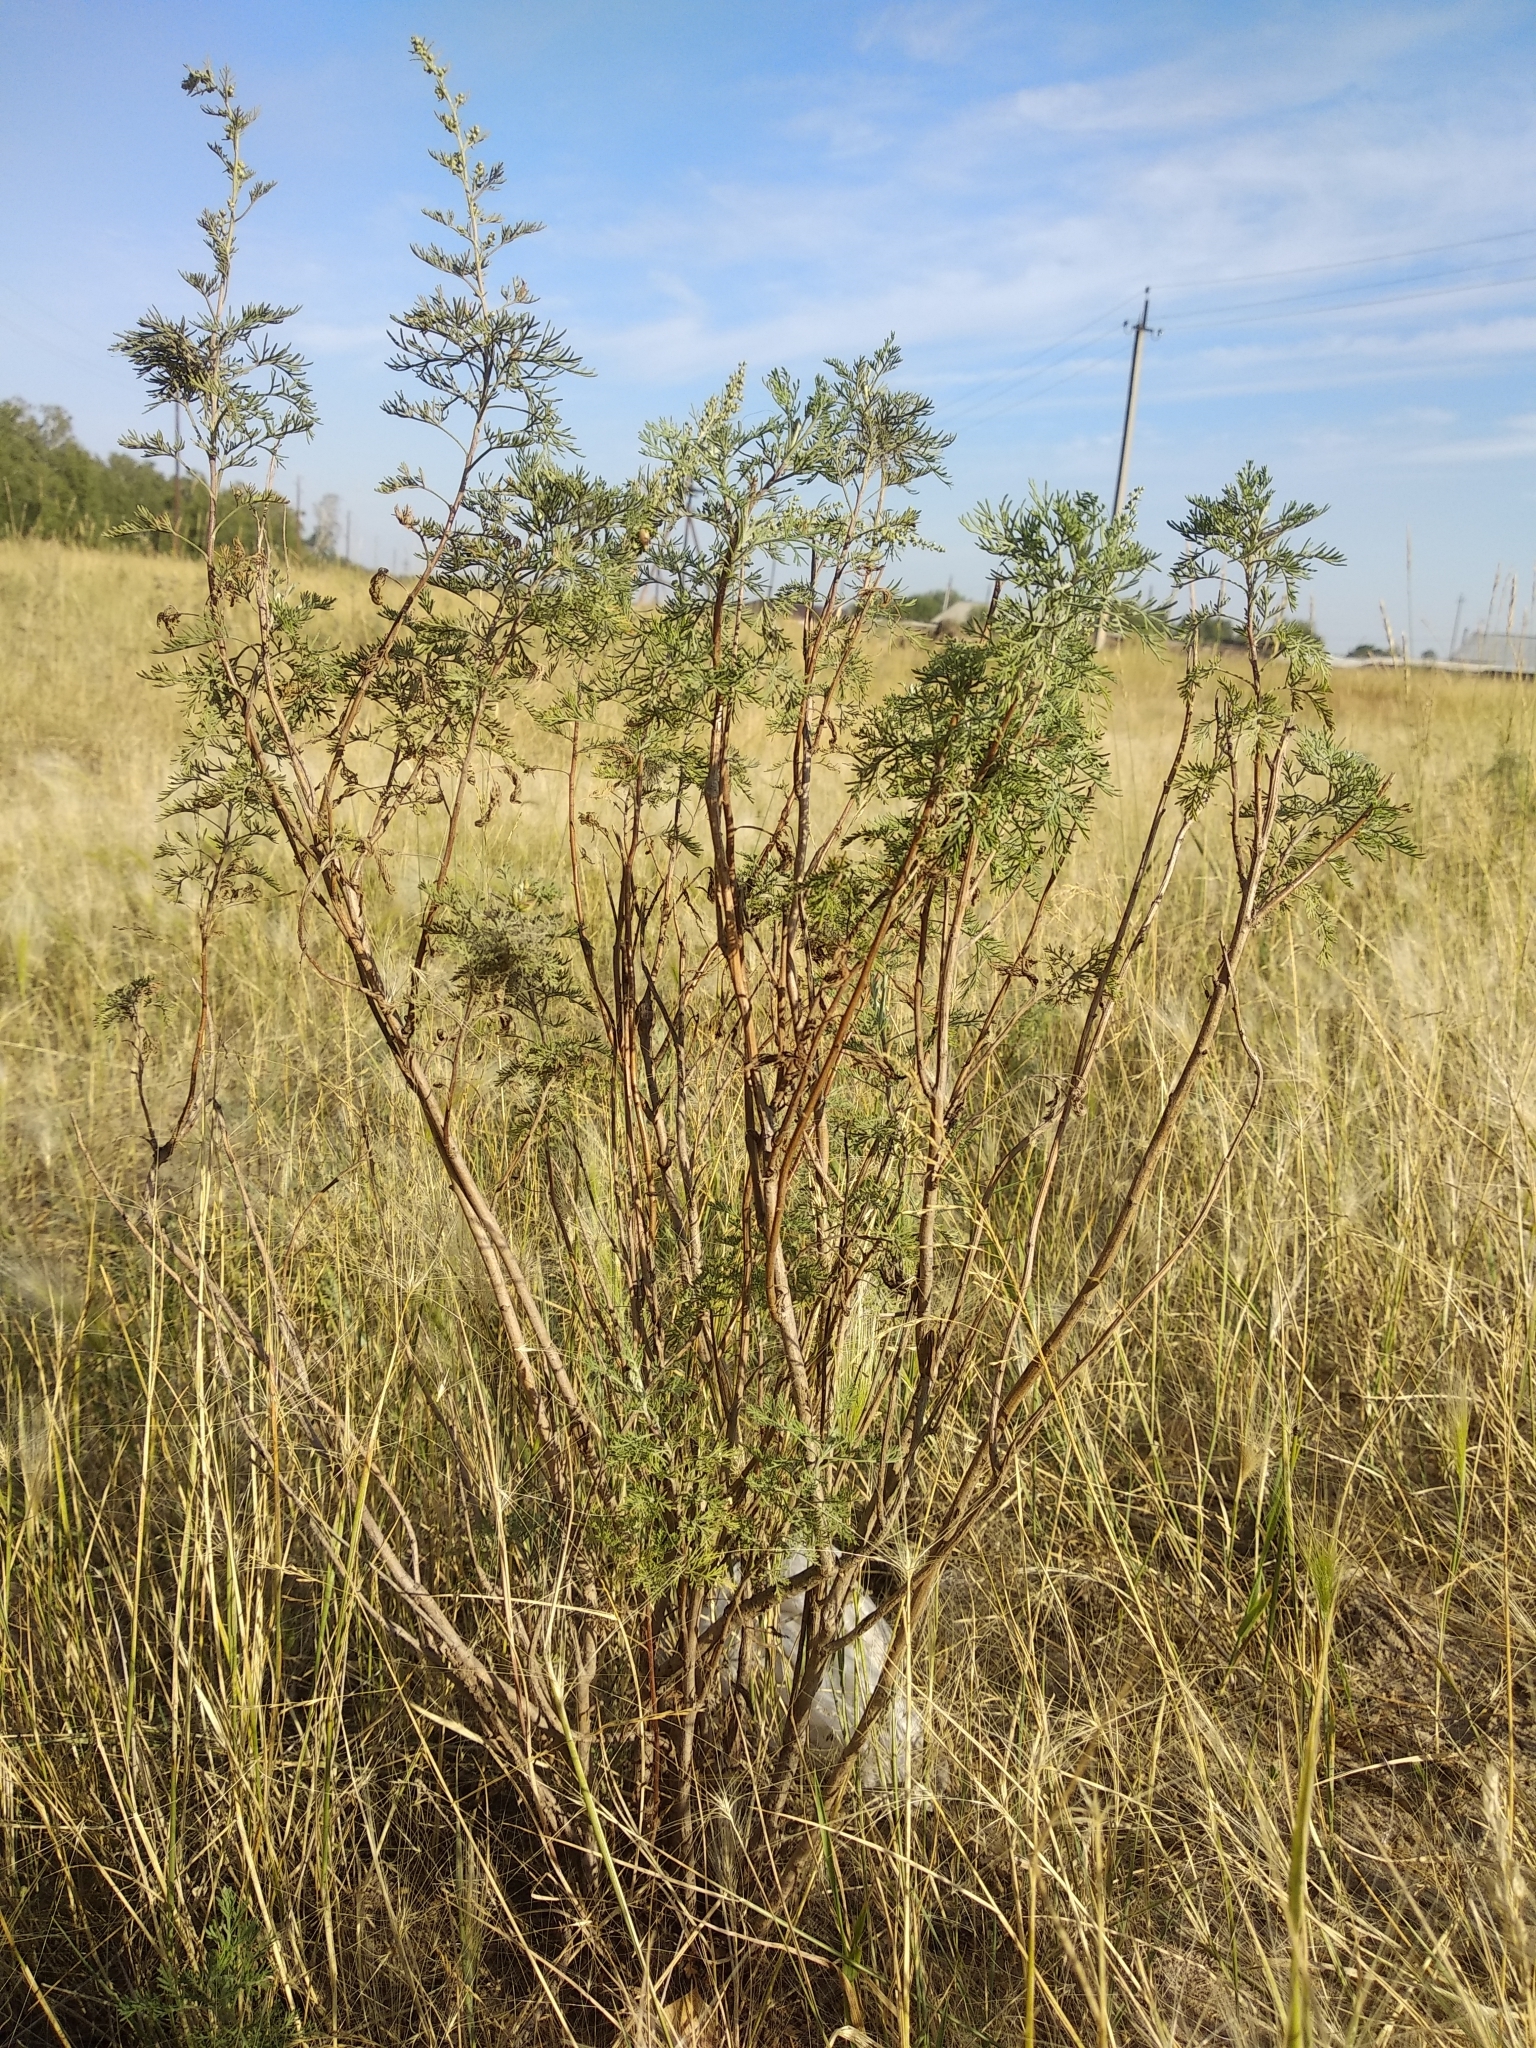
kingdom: Plantae
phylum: Tracheophyta
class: Magnoliopsida
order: Asterales
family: Asteraceae
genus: Artemisia
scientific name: Artemisia abrotanum
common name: Southernwood
